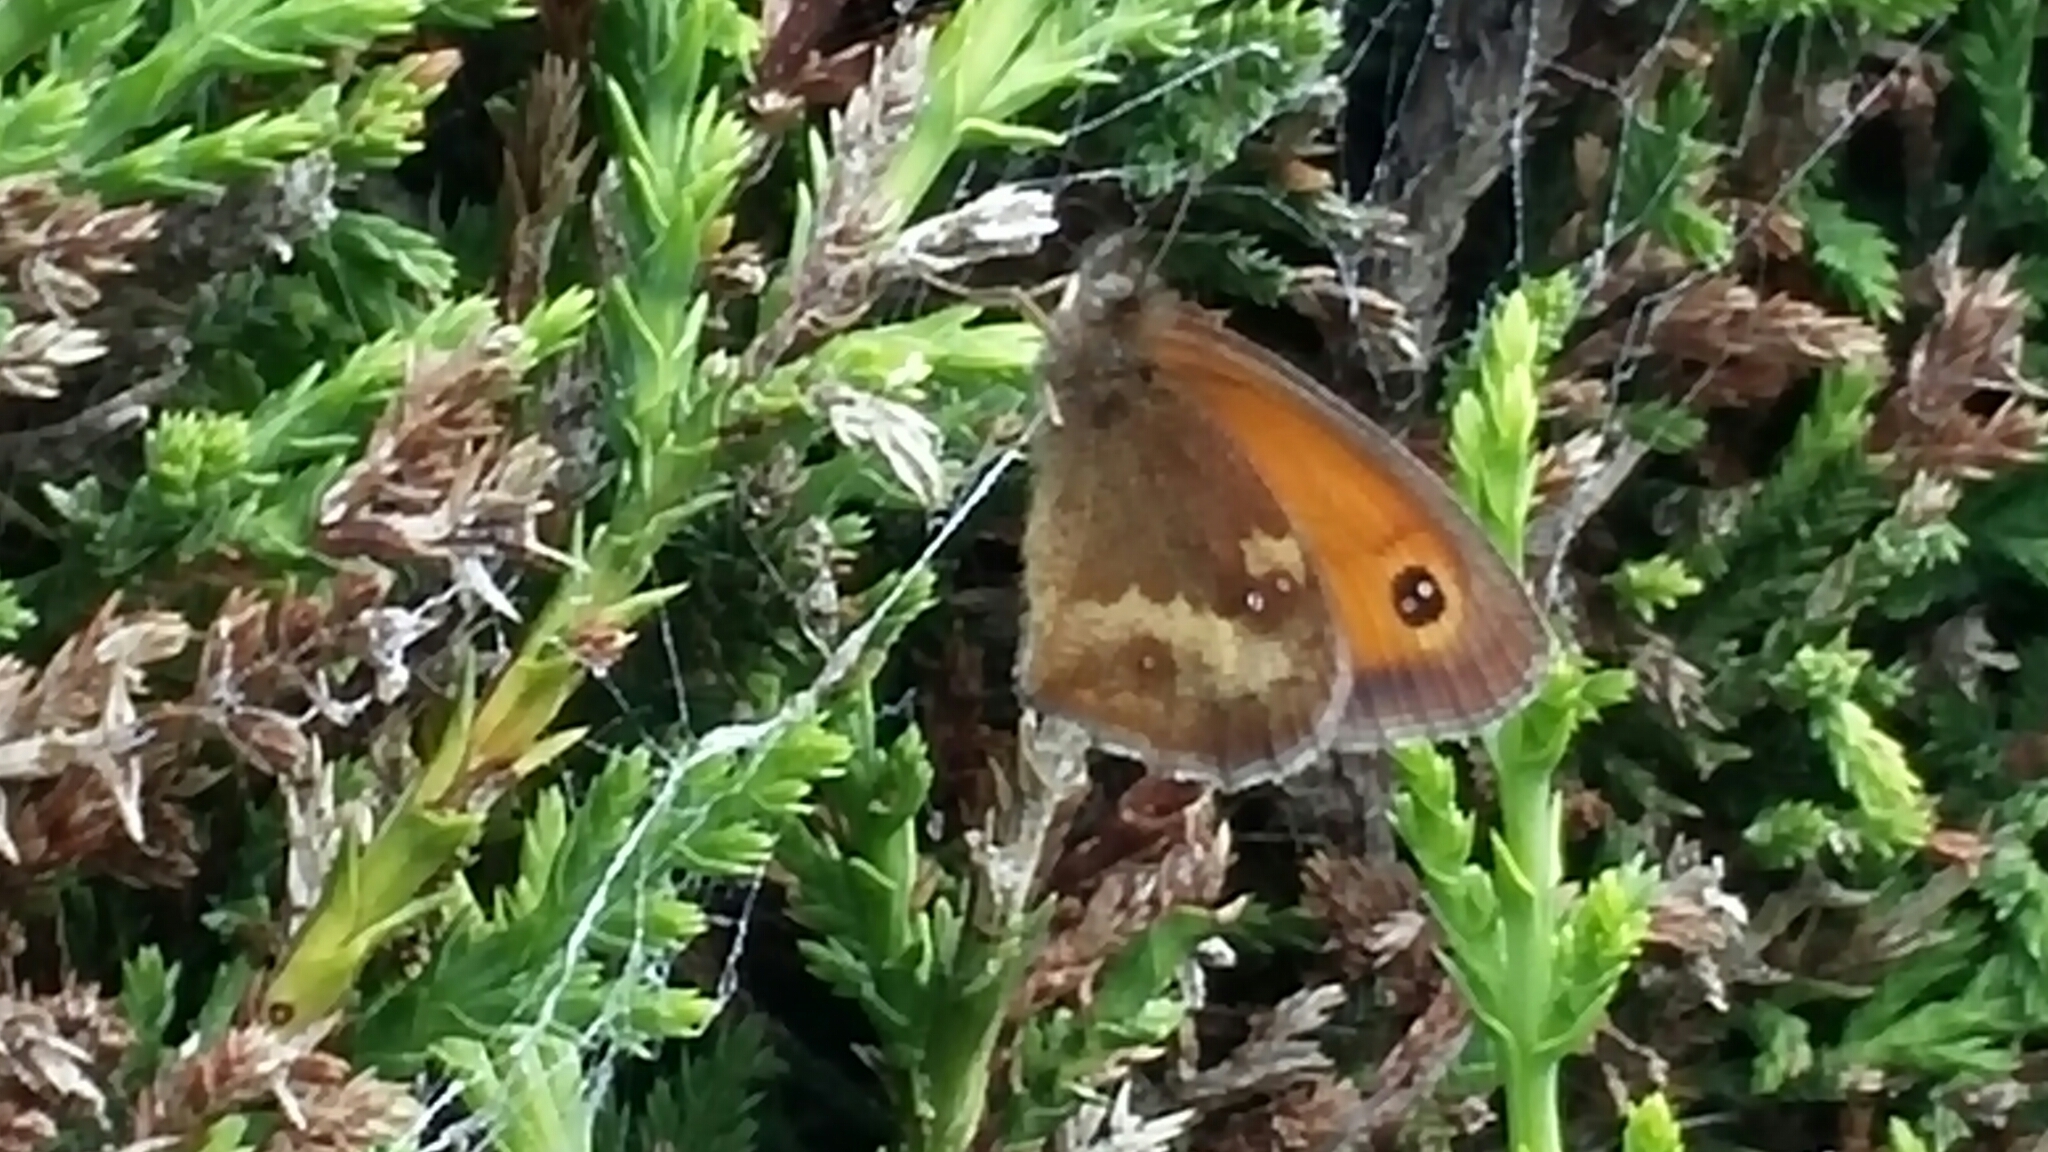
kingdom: Animalia
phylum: Arthropoda
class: Insecta
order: Lepidoptera
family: Nymphalidae
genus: Pyronia
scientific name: Pyronia tithonus
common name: Gatekeeper
